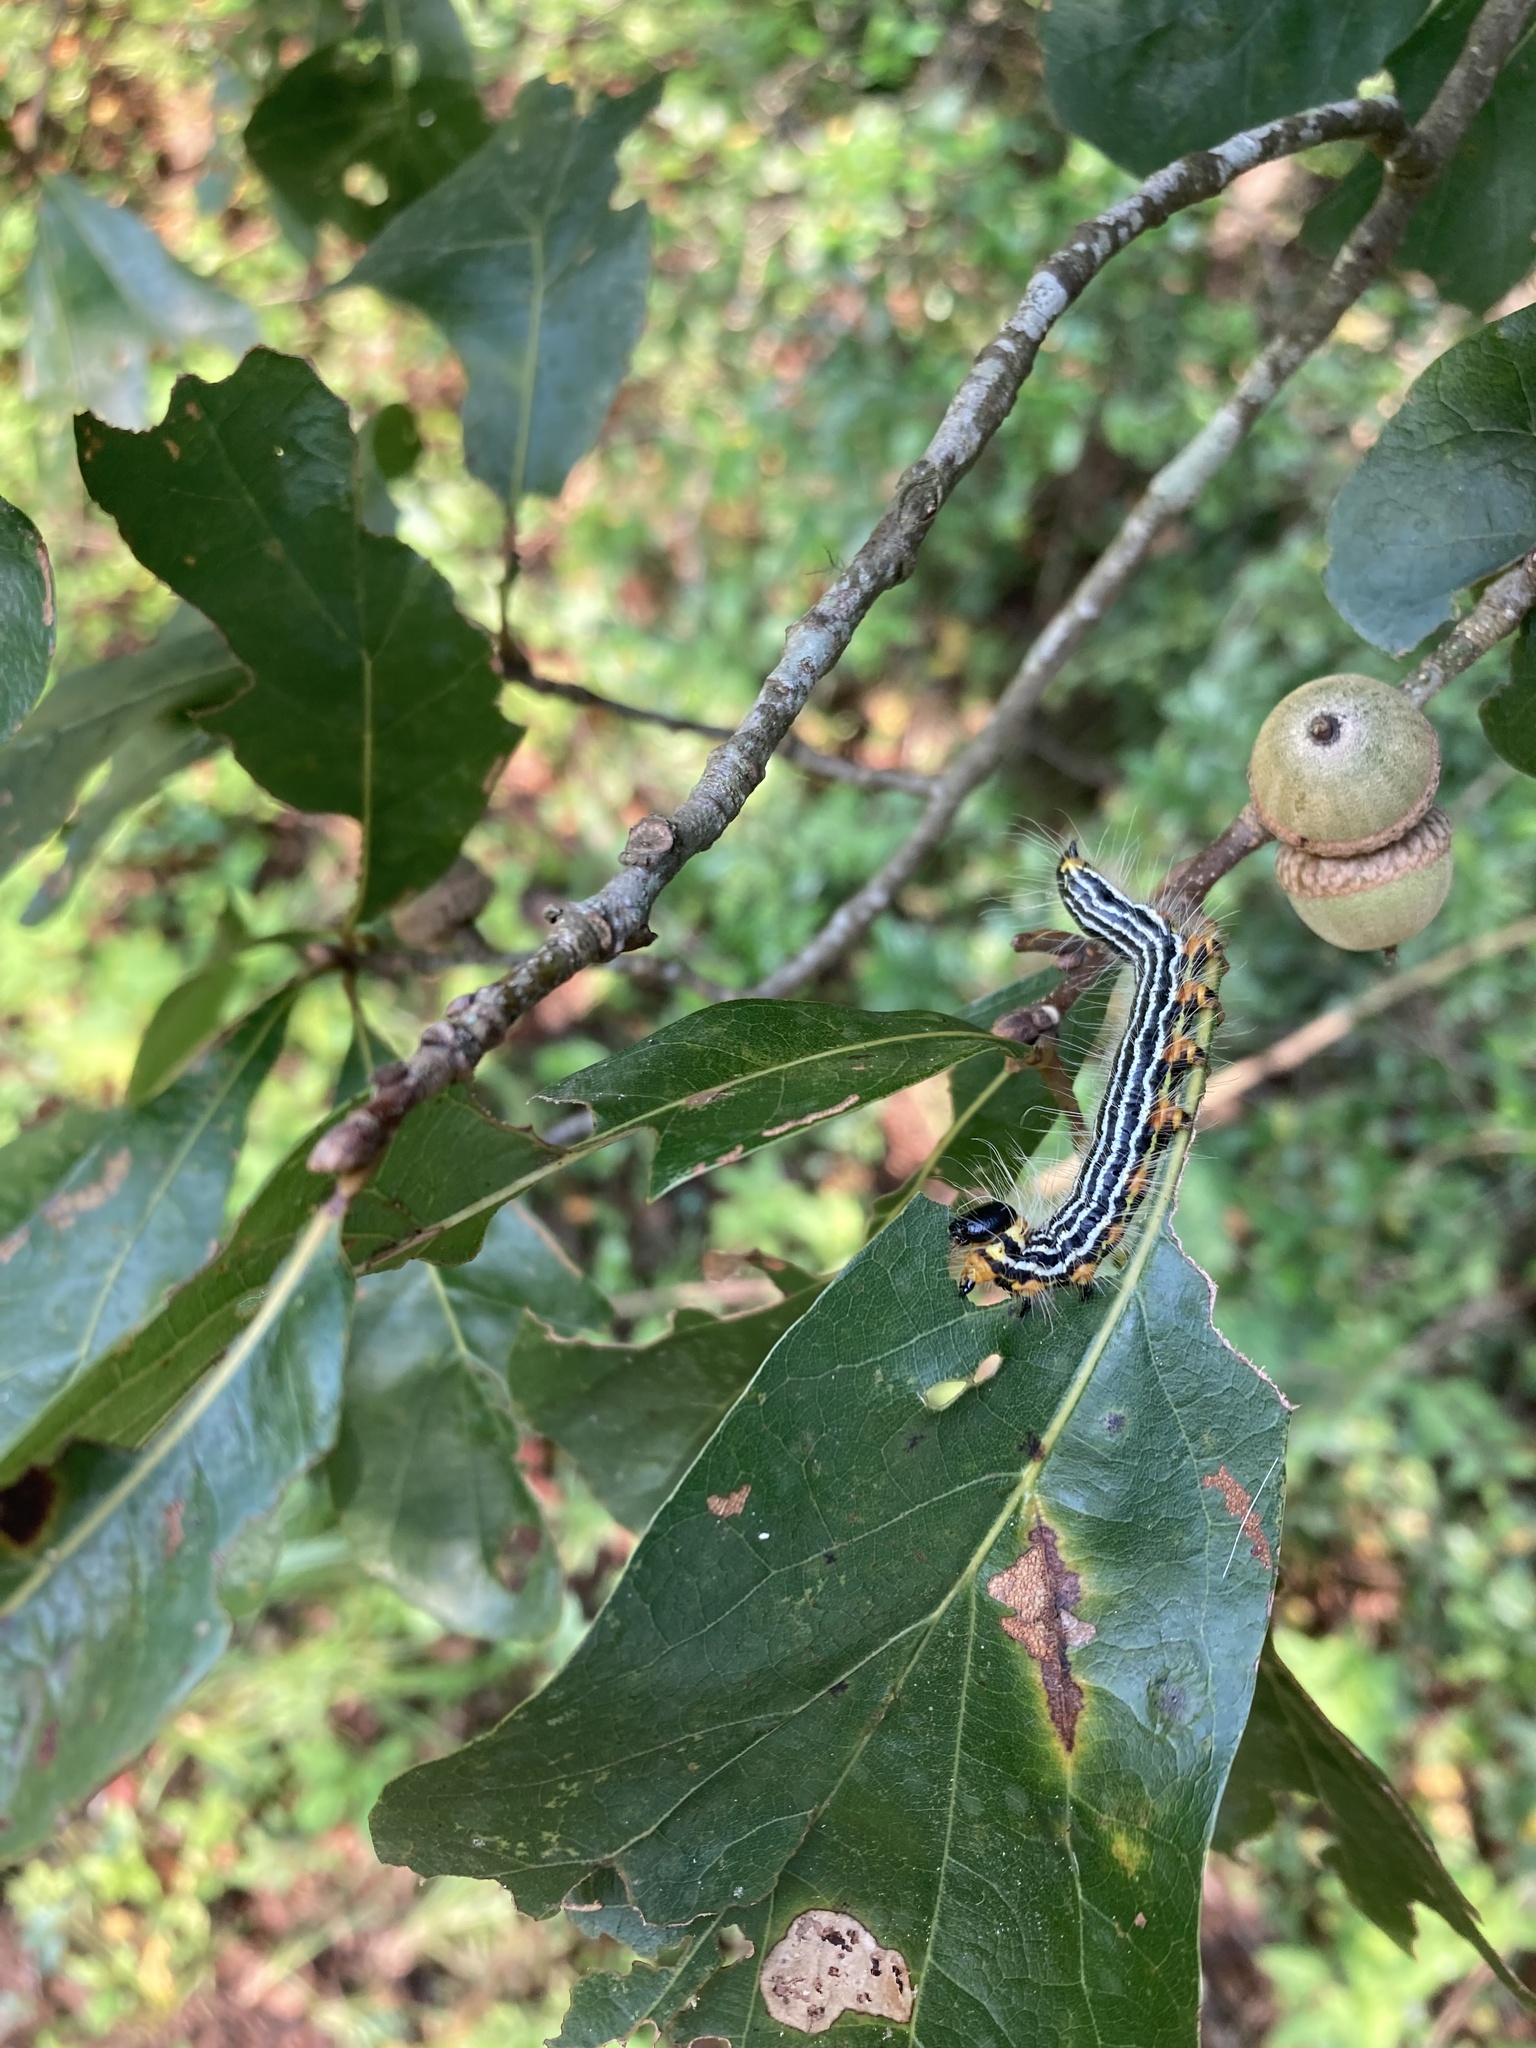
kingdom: Animalia
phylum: Arthropoda
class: Insecta
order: Lepidoptera
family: Notodontidae
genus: Datana
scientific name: Datana ministra
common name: Yellow-necked caterpillar moth
